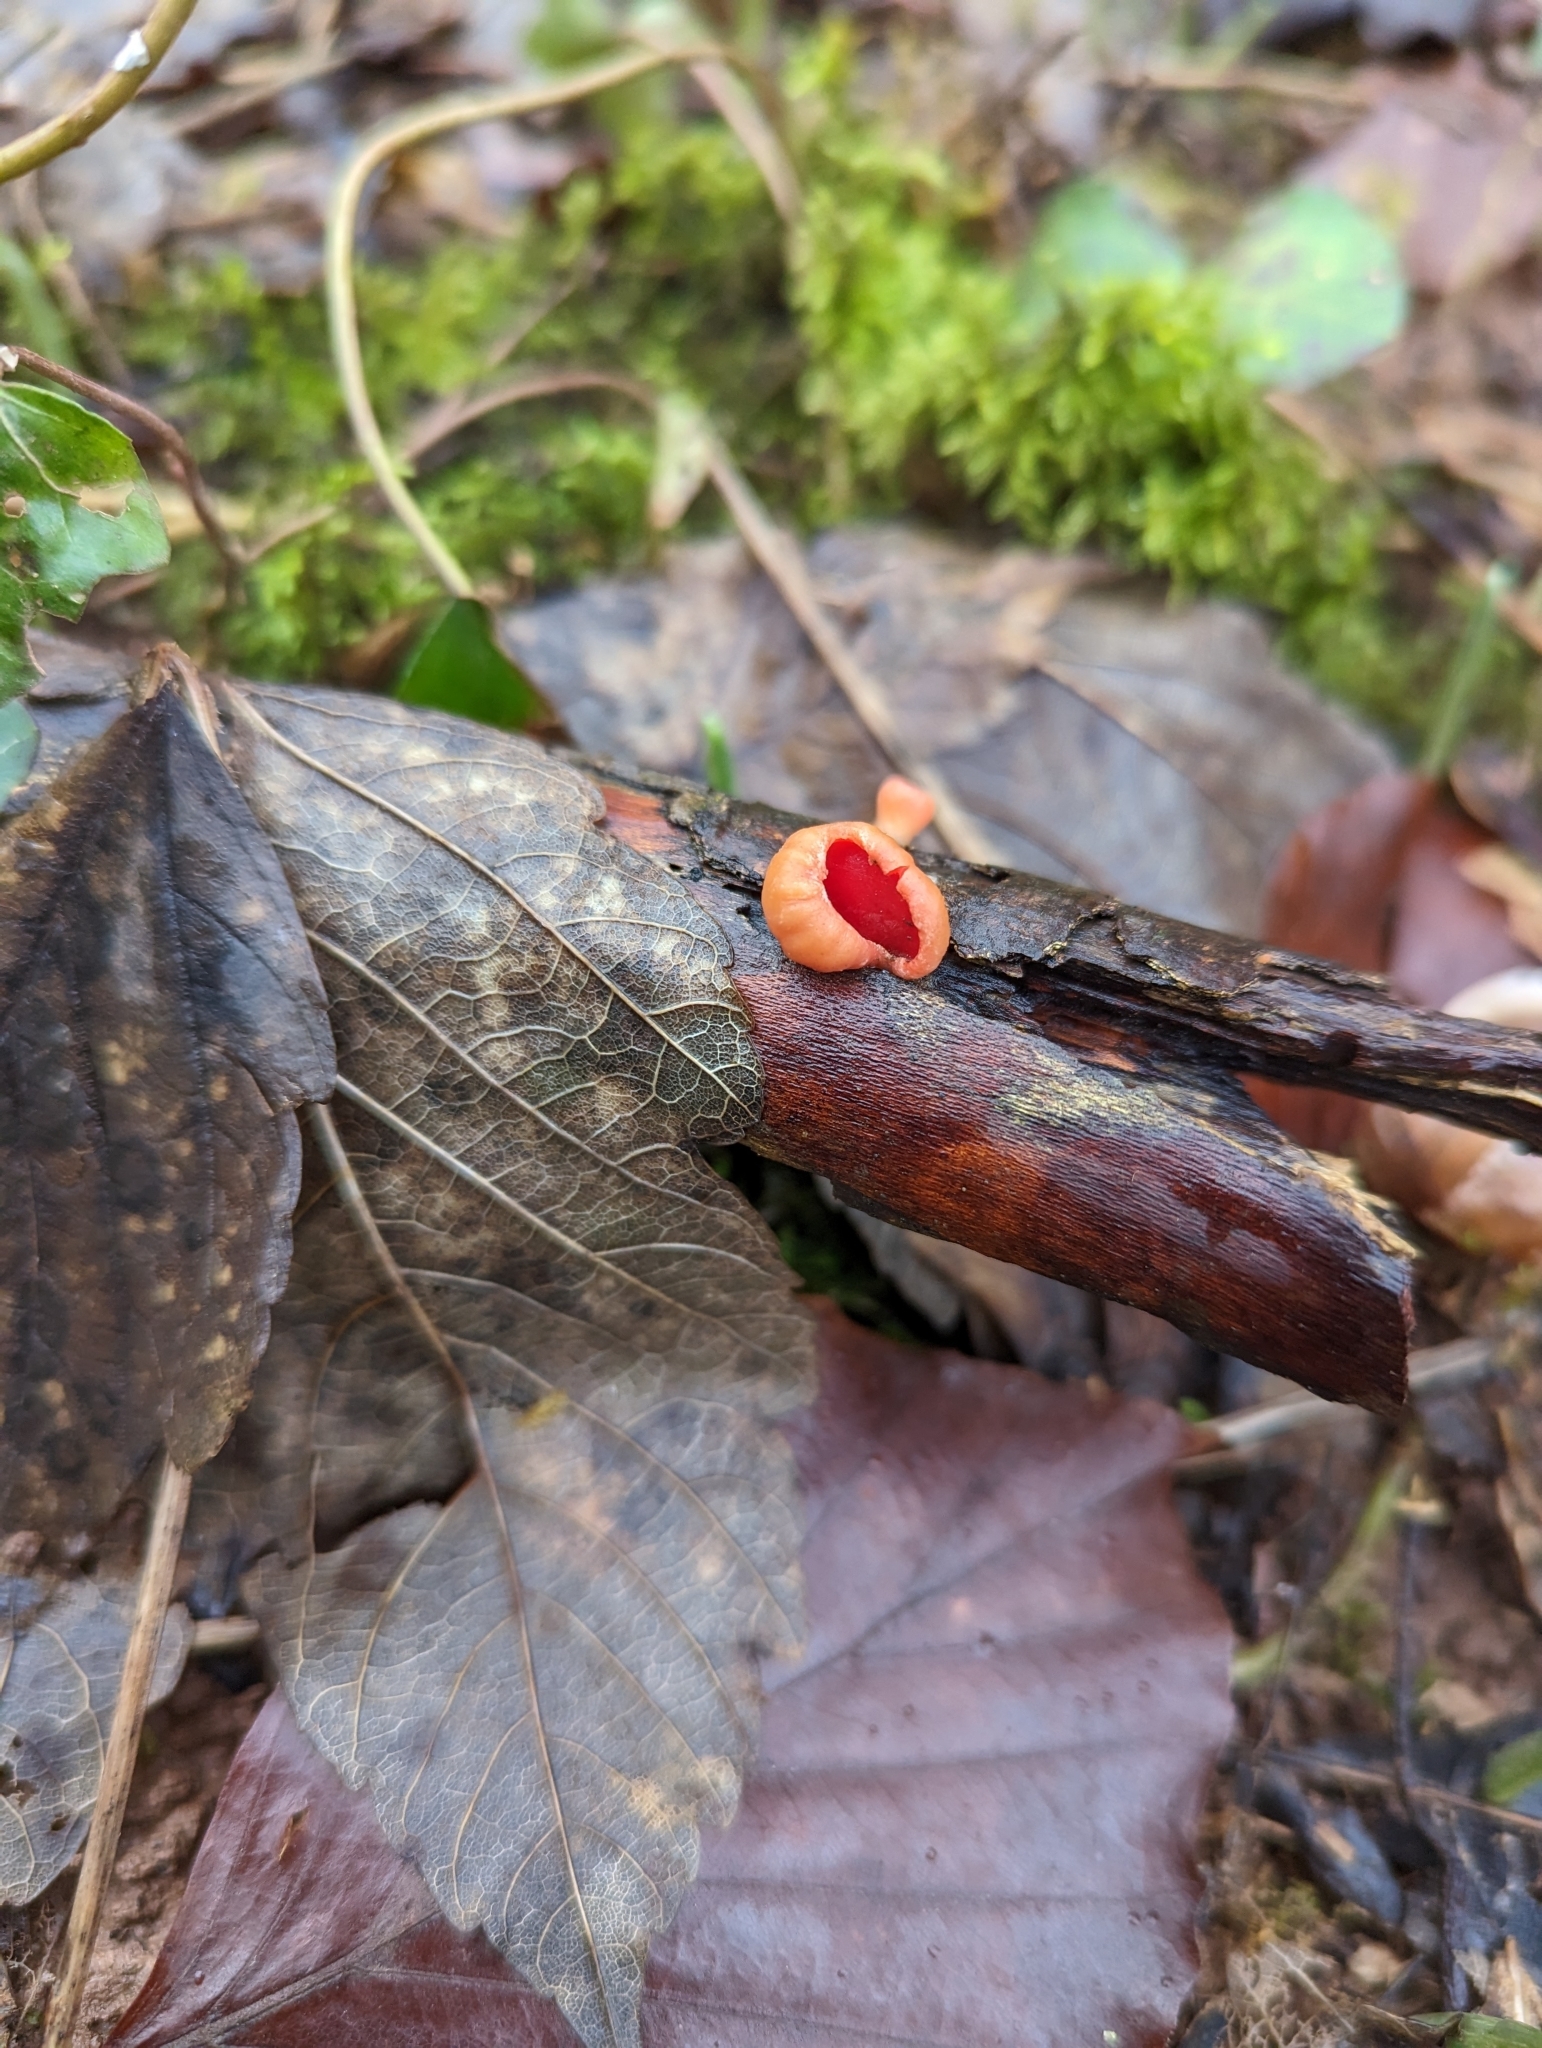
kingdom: Fungi
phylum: Ascomycota
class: Pezizomycetes
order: Pezizales
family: Sarcoscyphaceae
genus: Sarcoscypha
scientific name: Sarcoscypha
